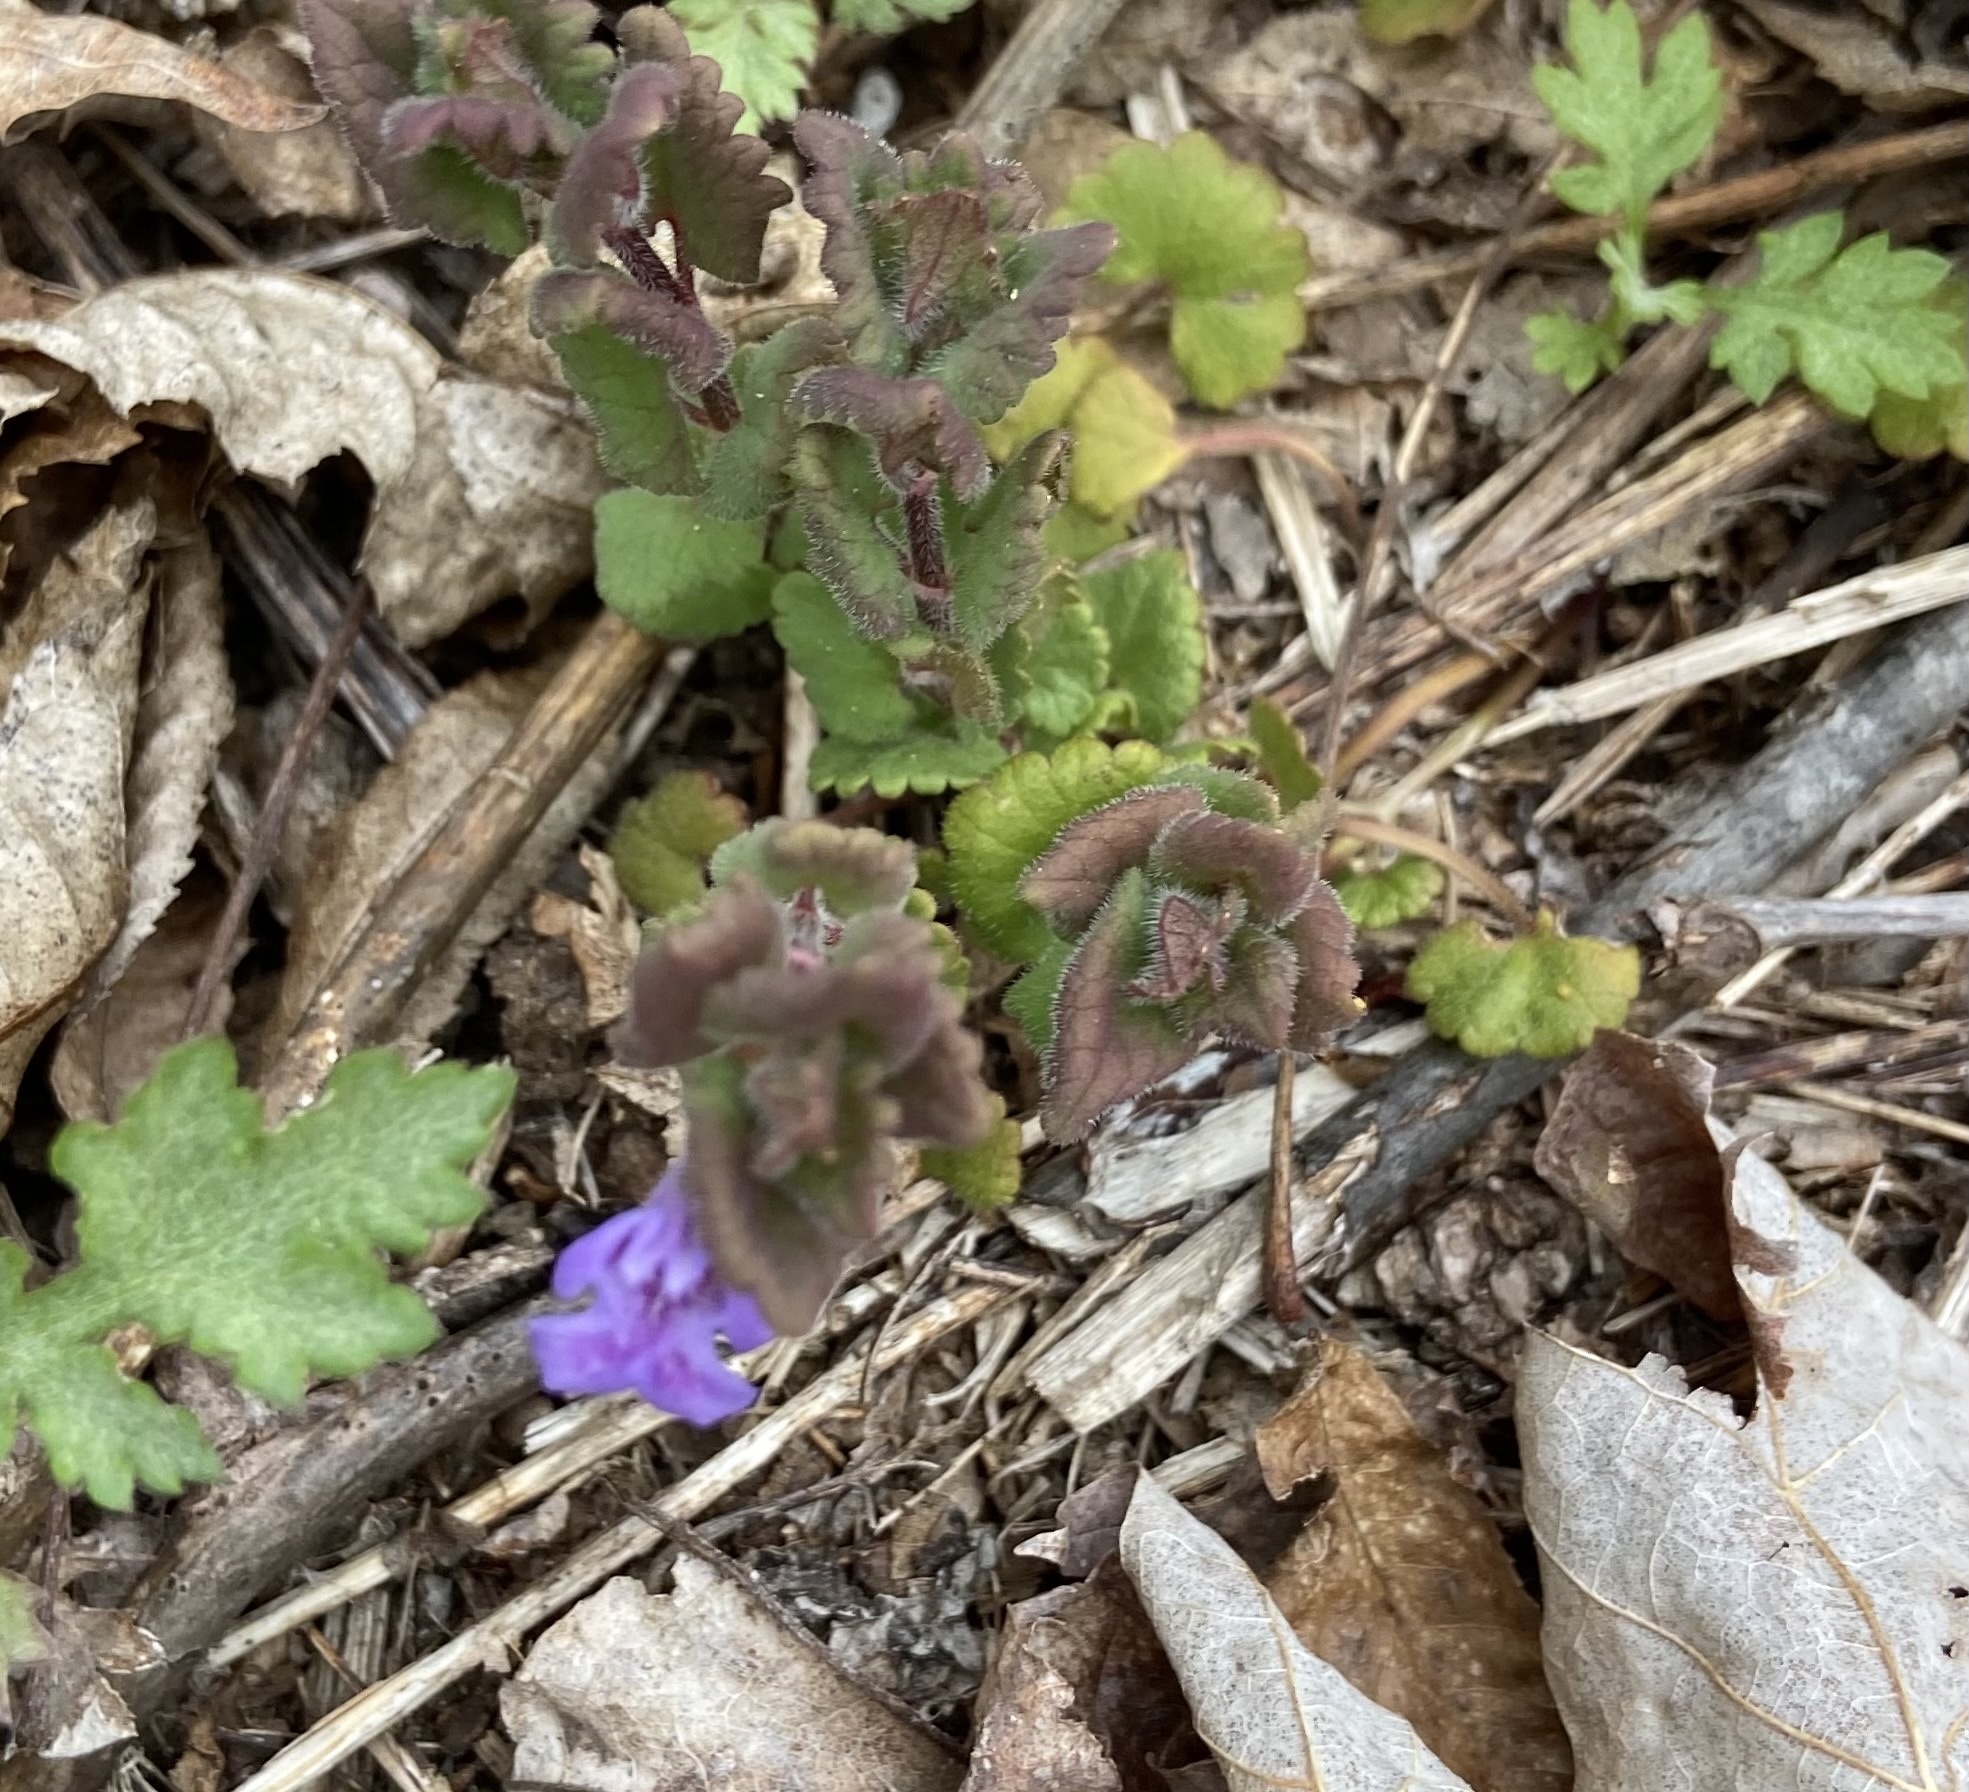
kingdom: Plantae
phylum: Tracheophyta
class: Magnoliopsida
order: Lamiales
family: Lamiaceae
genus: Glechoma
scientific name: Glechoma hederacea
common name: Ground ivy
